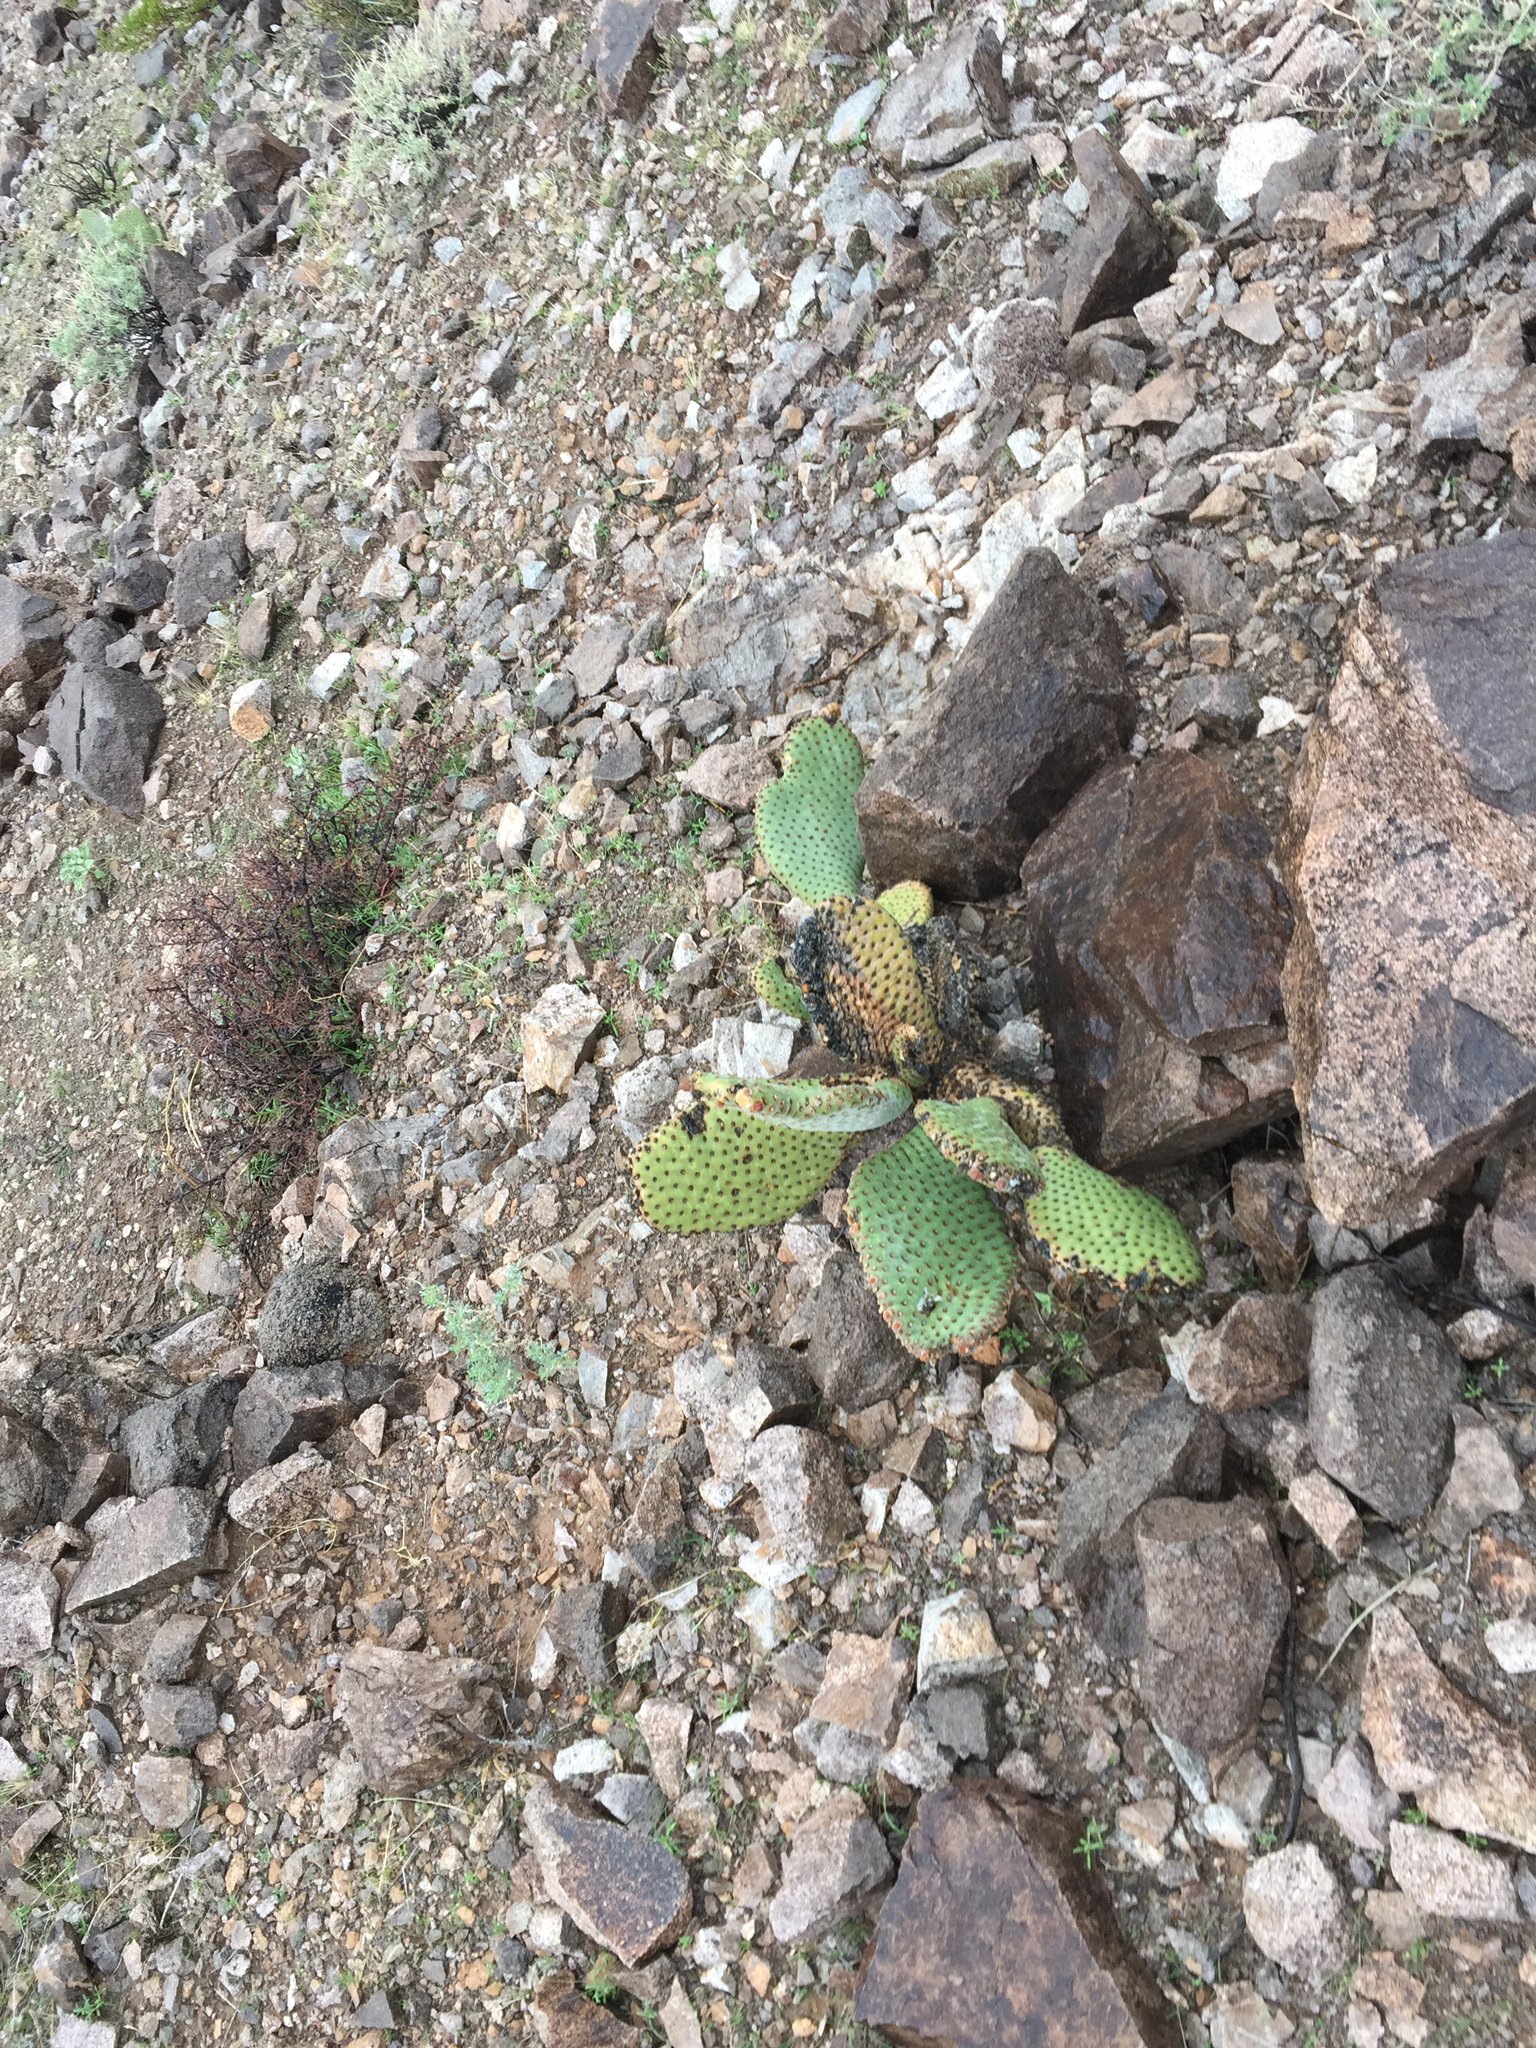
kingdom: Plantae
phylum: Tracheophyta
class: Magnoliopsida
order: Caryophyllales
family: Cactaceae
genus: Opuntia
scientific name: Opuntia basilaris
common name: Beavertail prickly-pear
